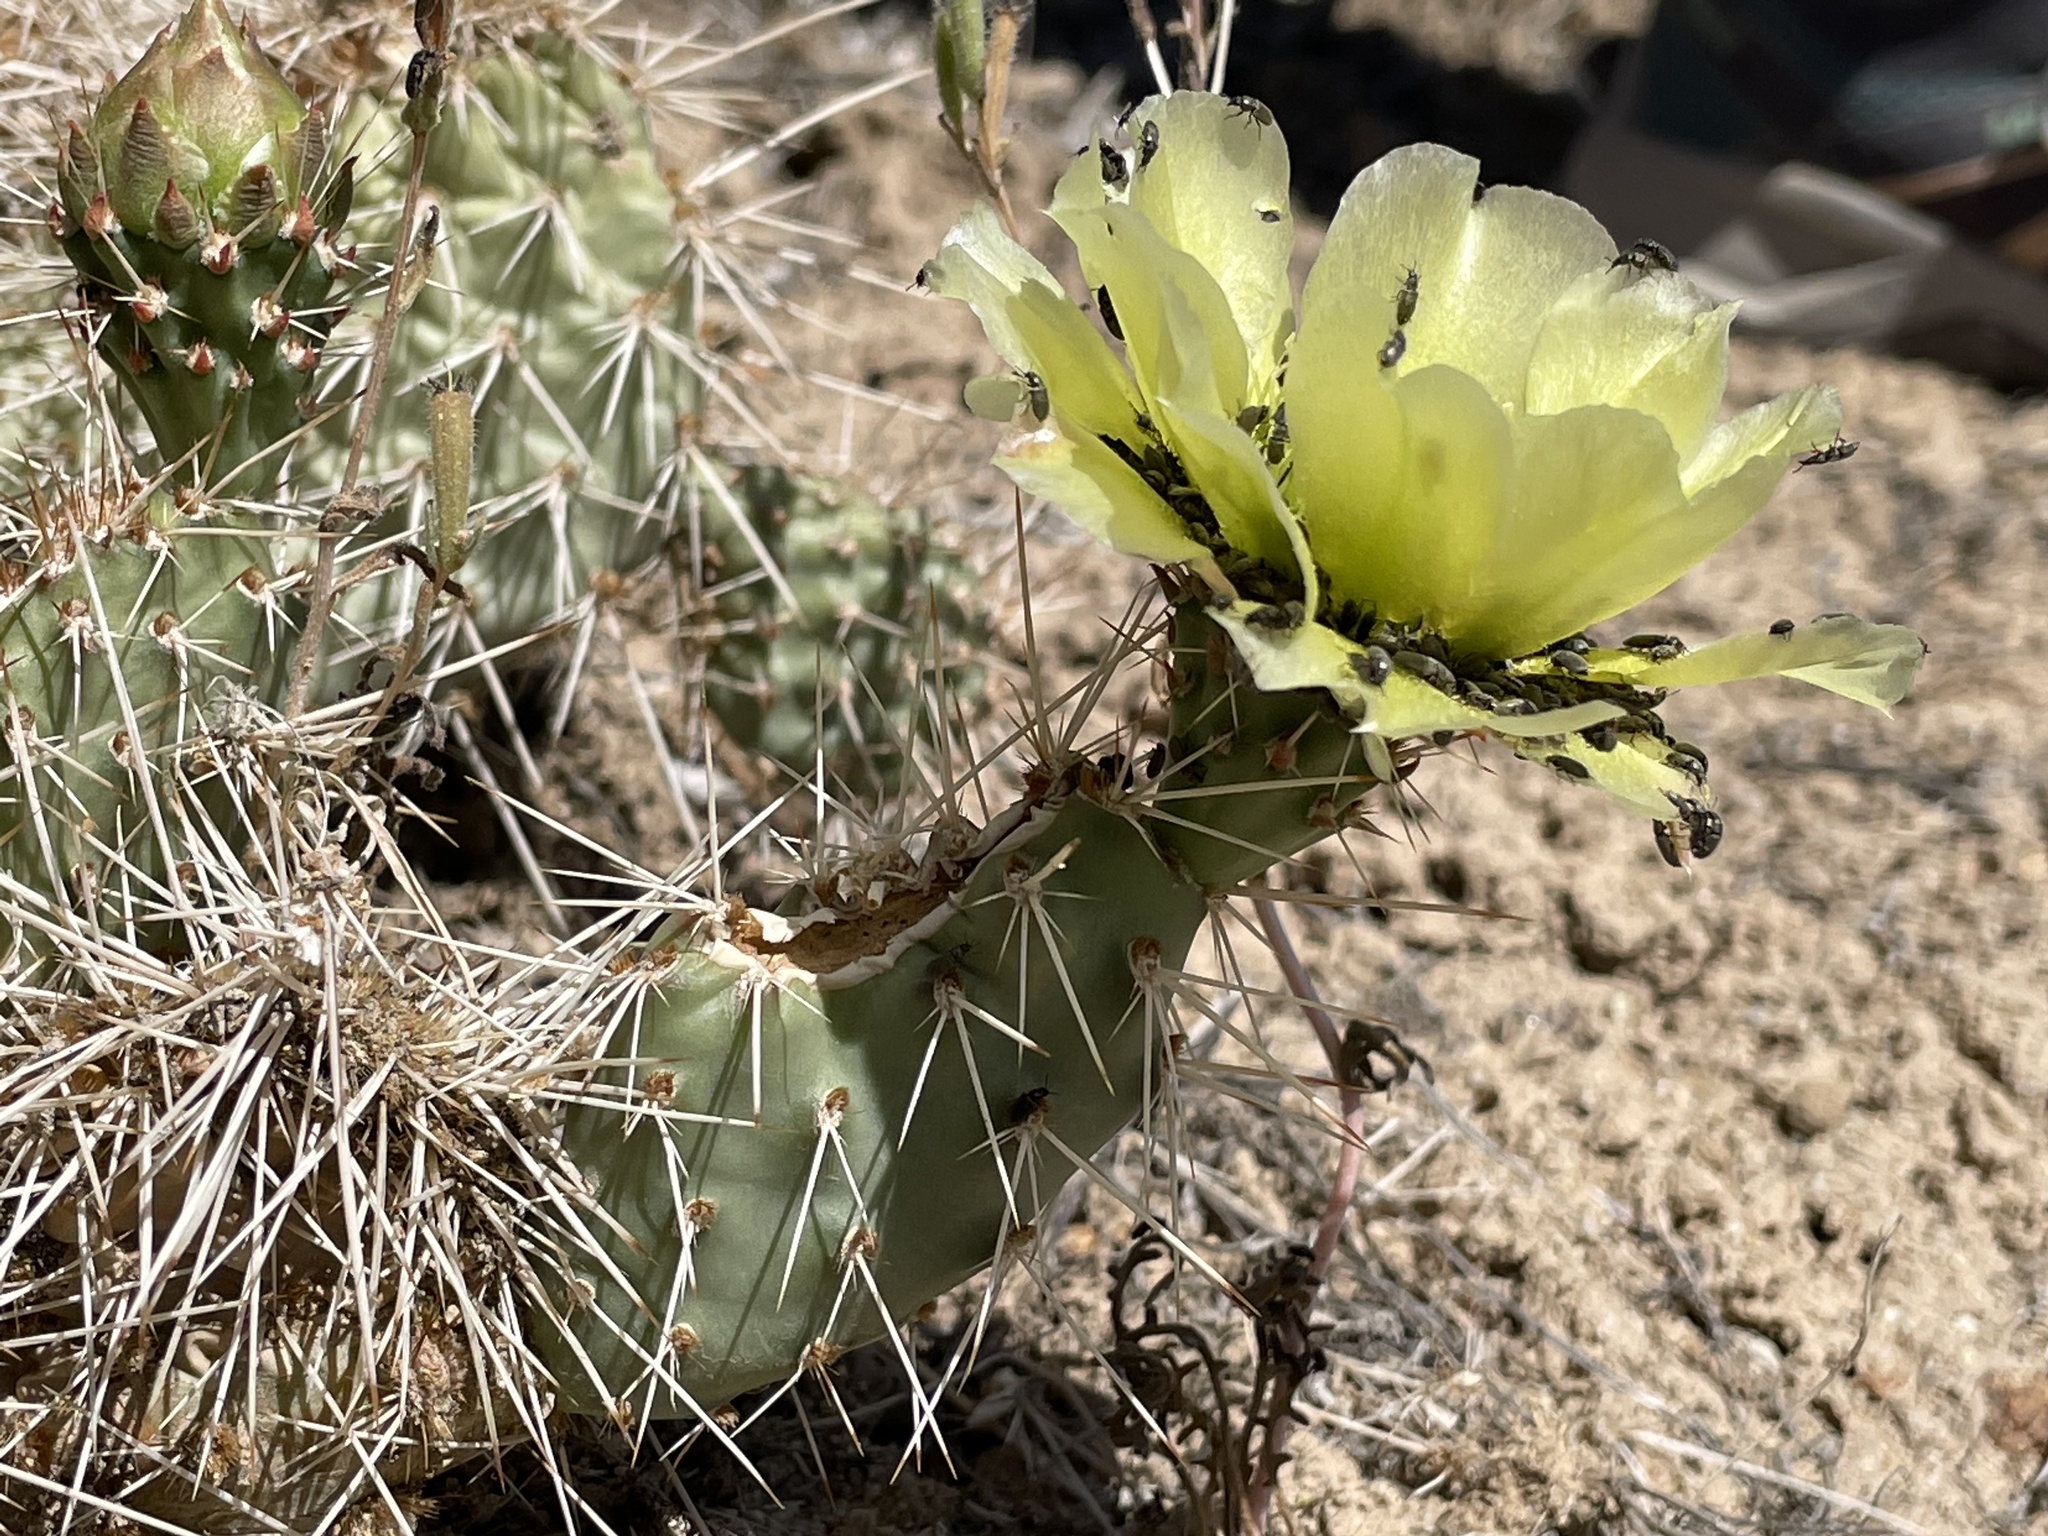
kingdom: Plantae
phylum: Tracheophyta
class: Magnoliopsida
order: Caryophyllales
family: Cactaceae
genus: Opuntia
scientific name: Opuntia polyacantha
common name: Plains prickly-pear
